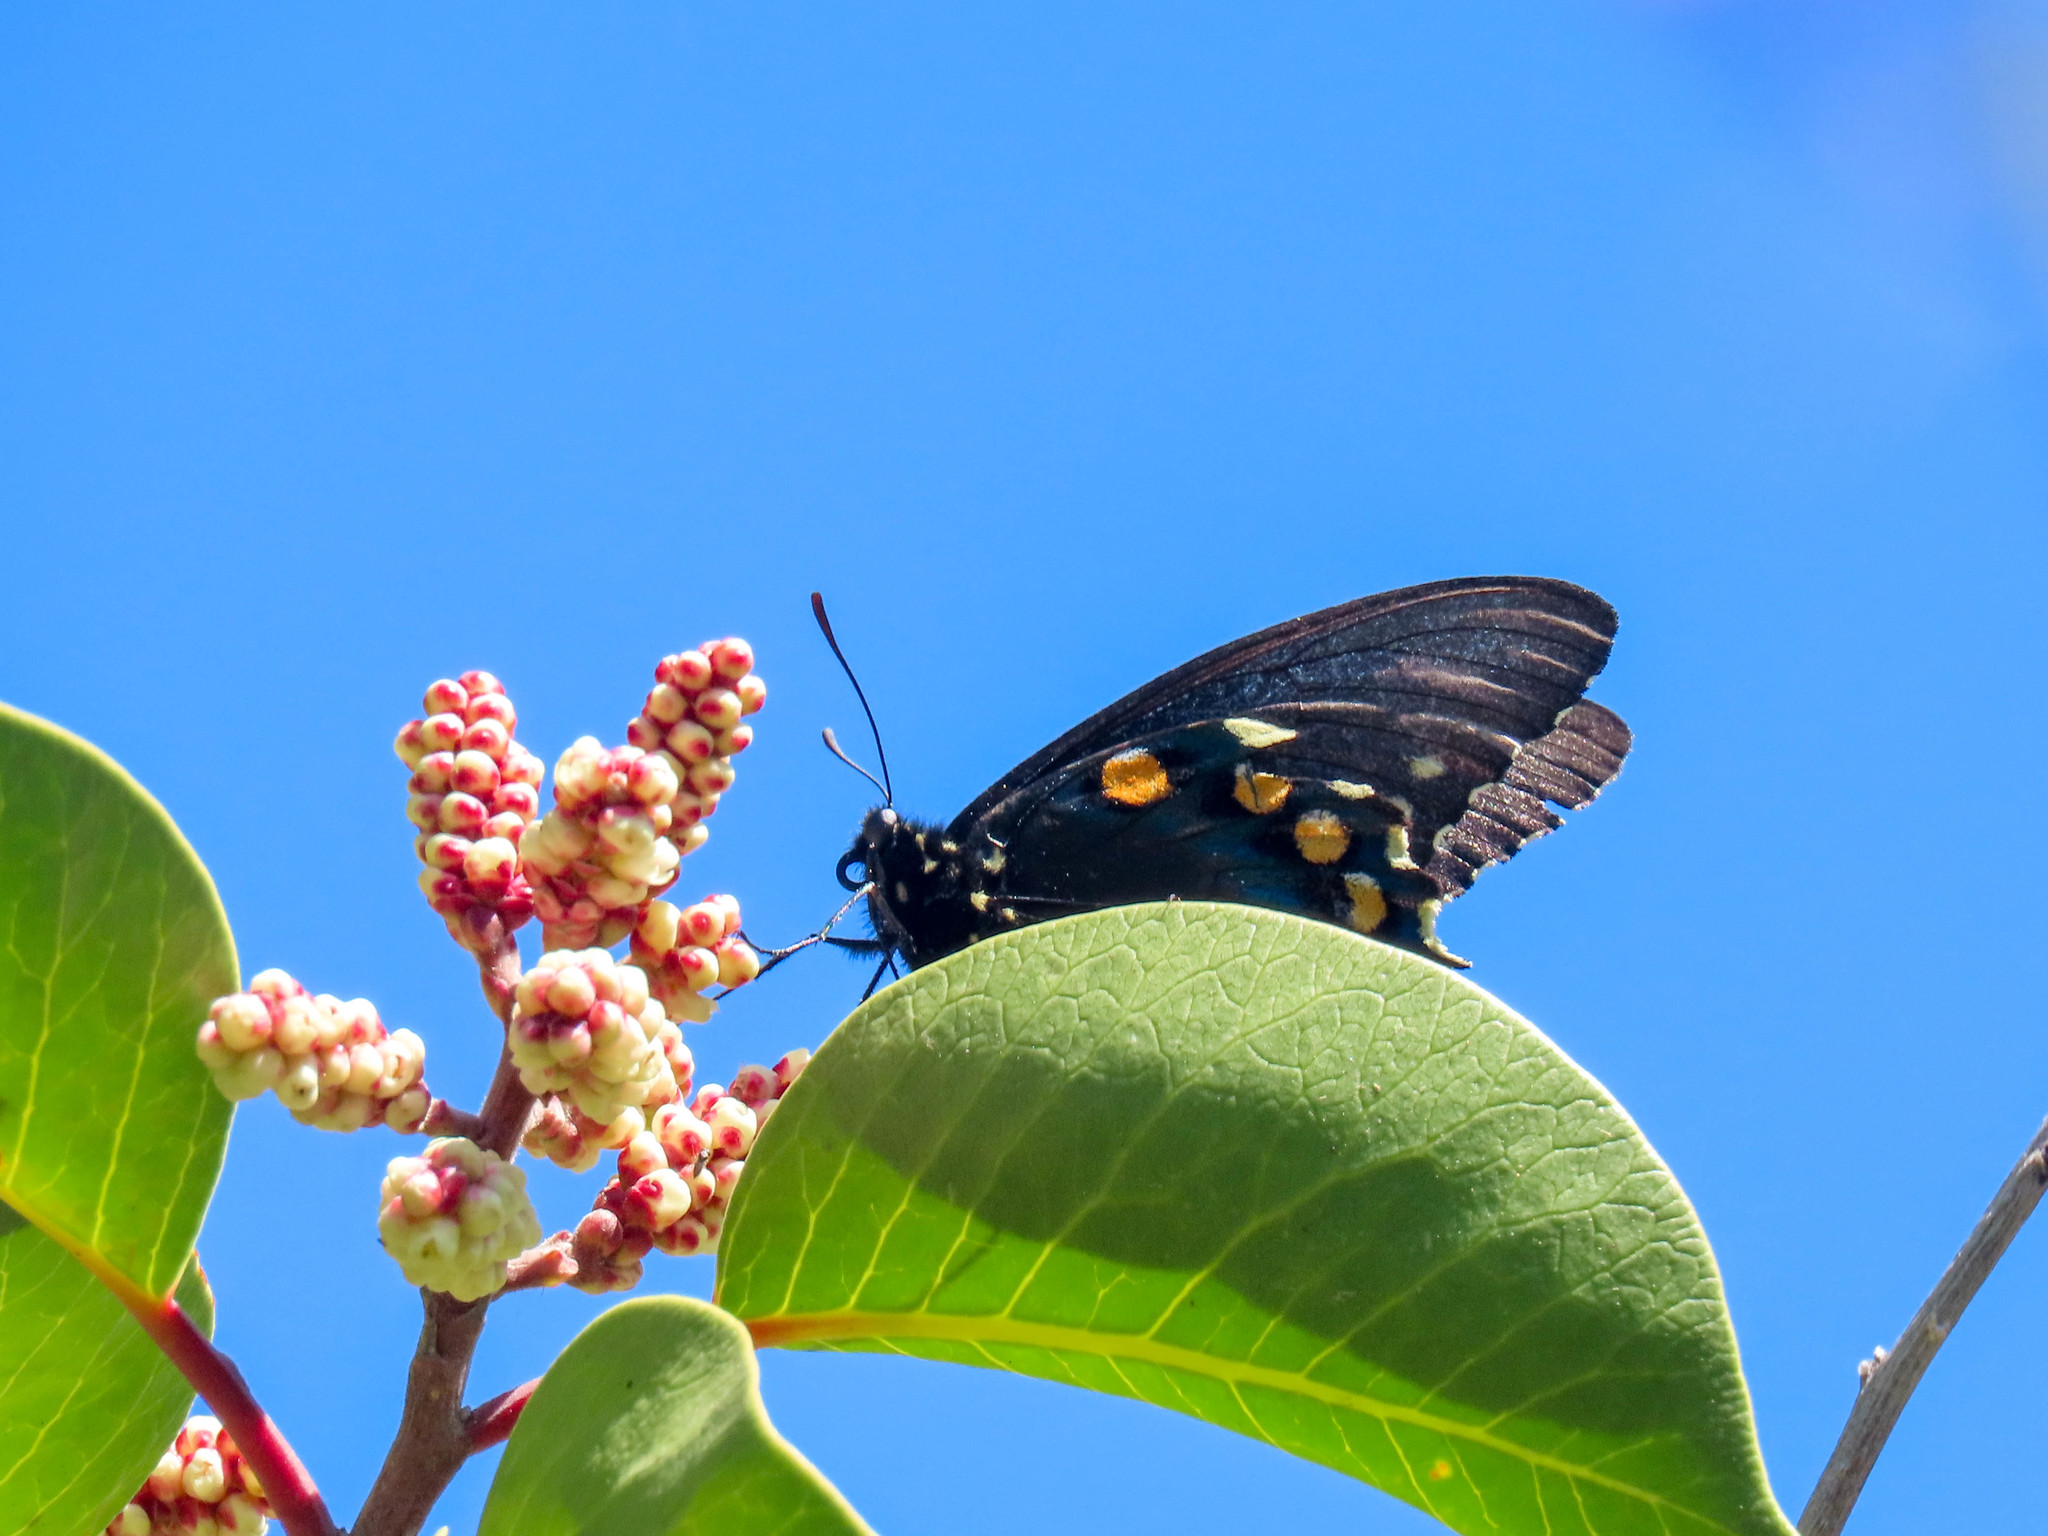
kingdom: Animalia
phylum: Arthropoda
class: Insecta
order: Lepidoptera
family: Papilionidae
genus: Battus
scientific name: Battus philenor
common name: Pipevine swallowtail
